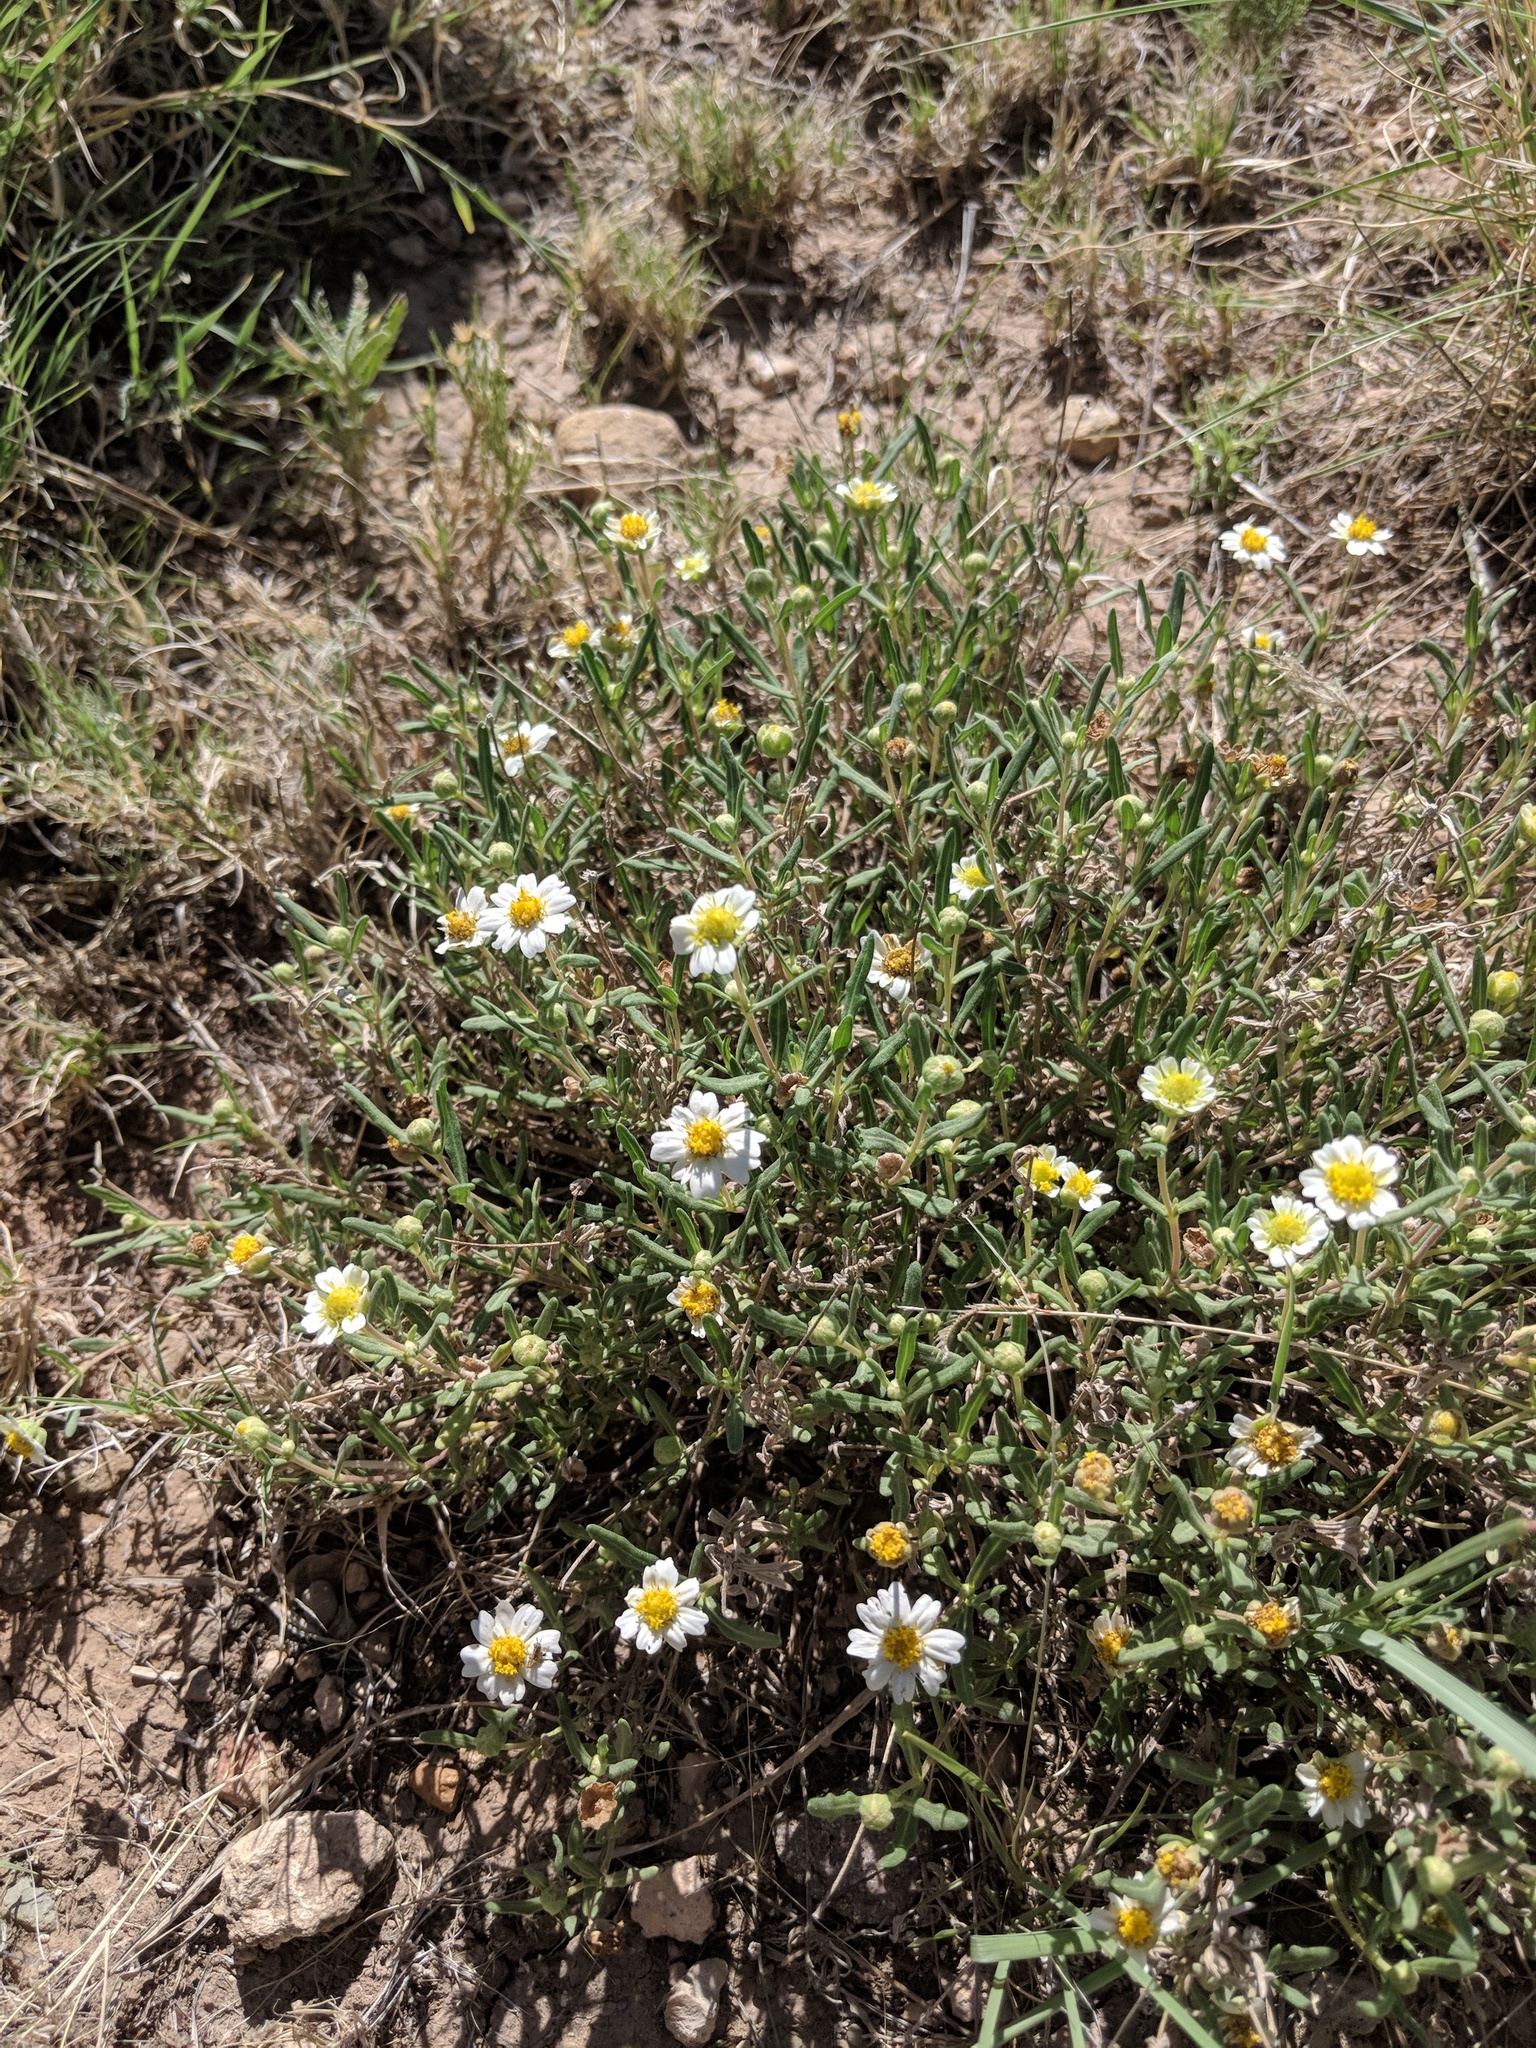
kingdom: Plantae
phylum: Tracheophyta
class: Magnoliopsida
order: Asterales
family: Asteraceae
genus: Melampodium
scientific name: Melampodium leucanthum
